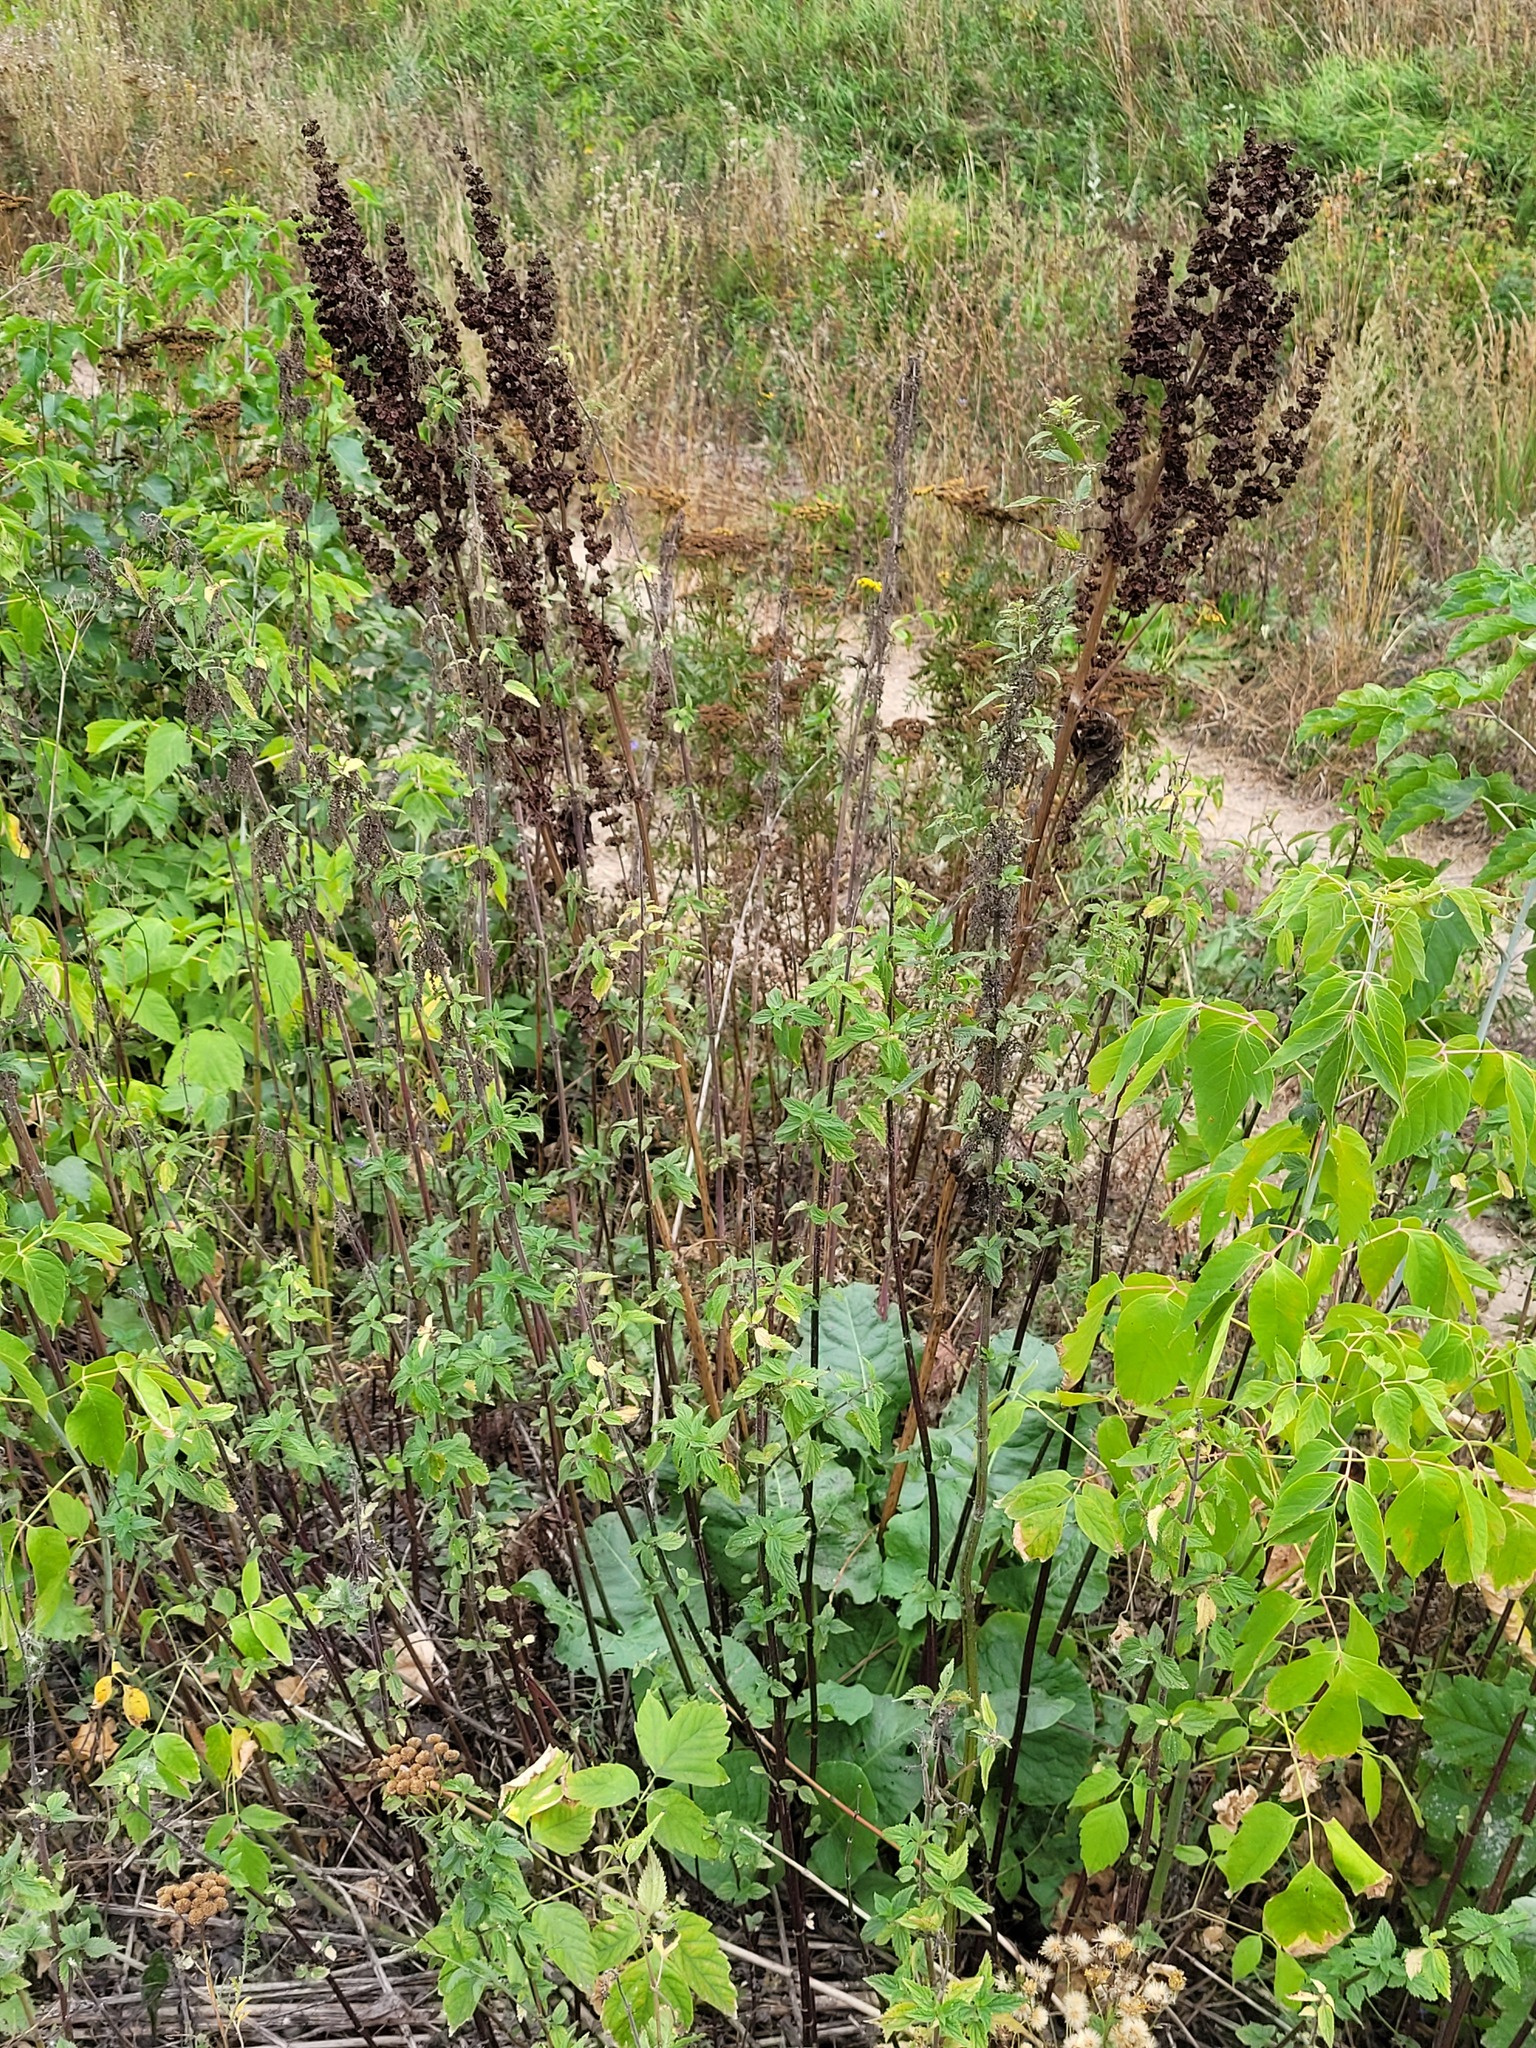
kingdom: Plantae
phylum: Tracheophyta
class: Magnoliopsida
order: Caryophyllales
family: Polygonaceae
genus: Rumex
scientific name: Rumex confertus
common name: Russian dock
